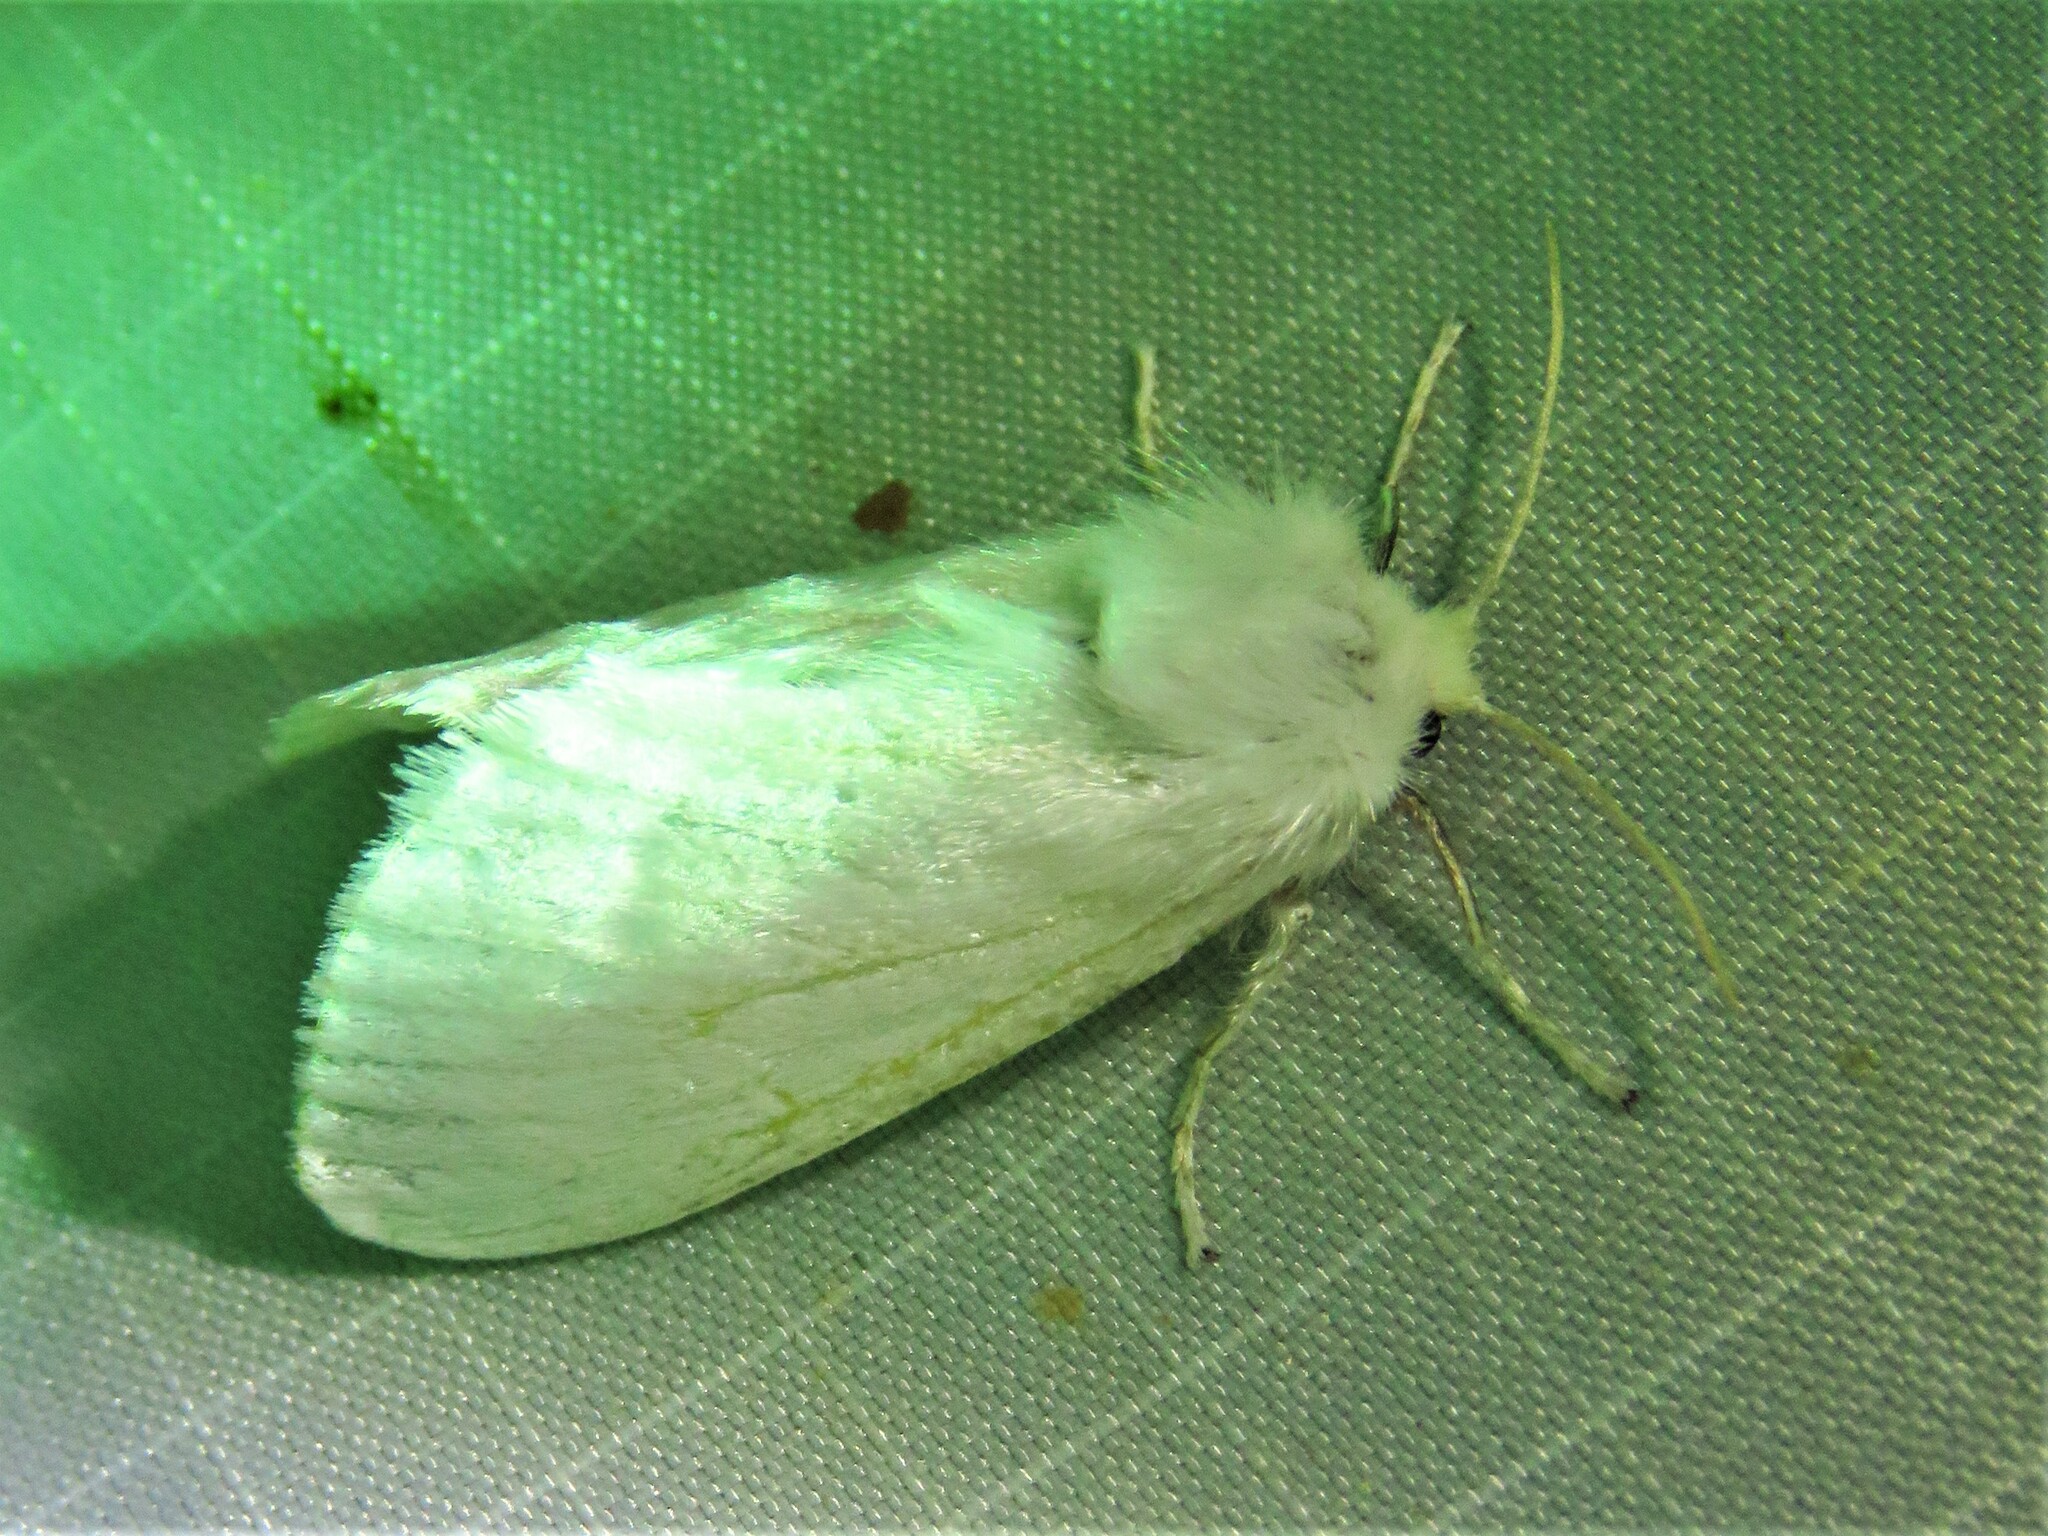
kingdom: Animalia
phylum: Arthropoda
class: Insecta
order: Lepidoptera
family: Megalopygidae
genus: Norape
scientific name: Norape cretata
